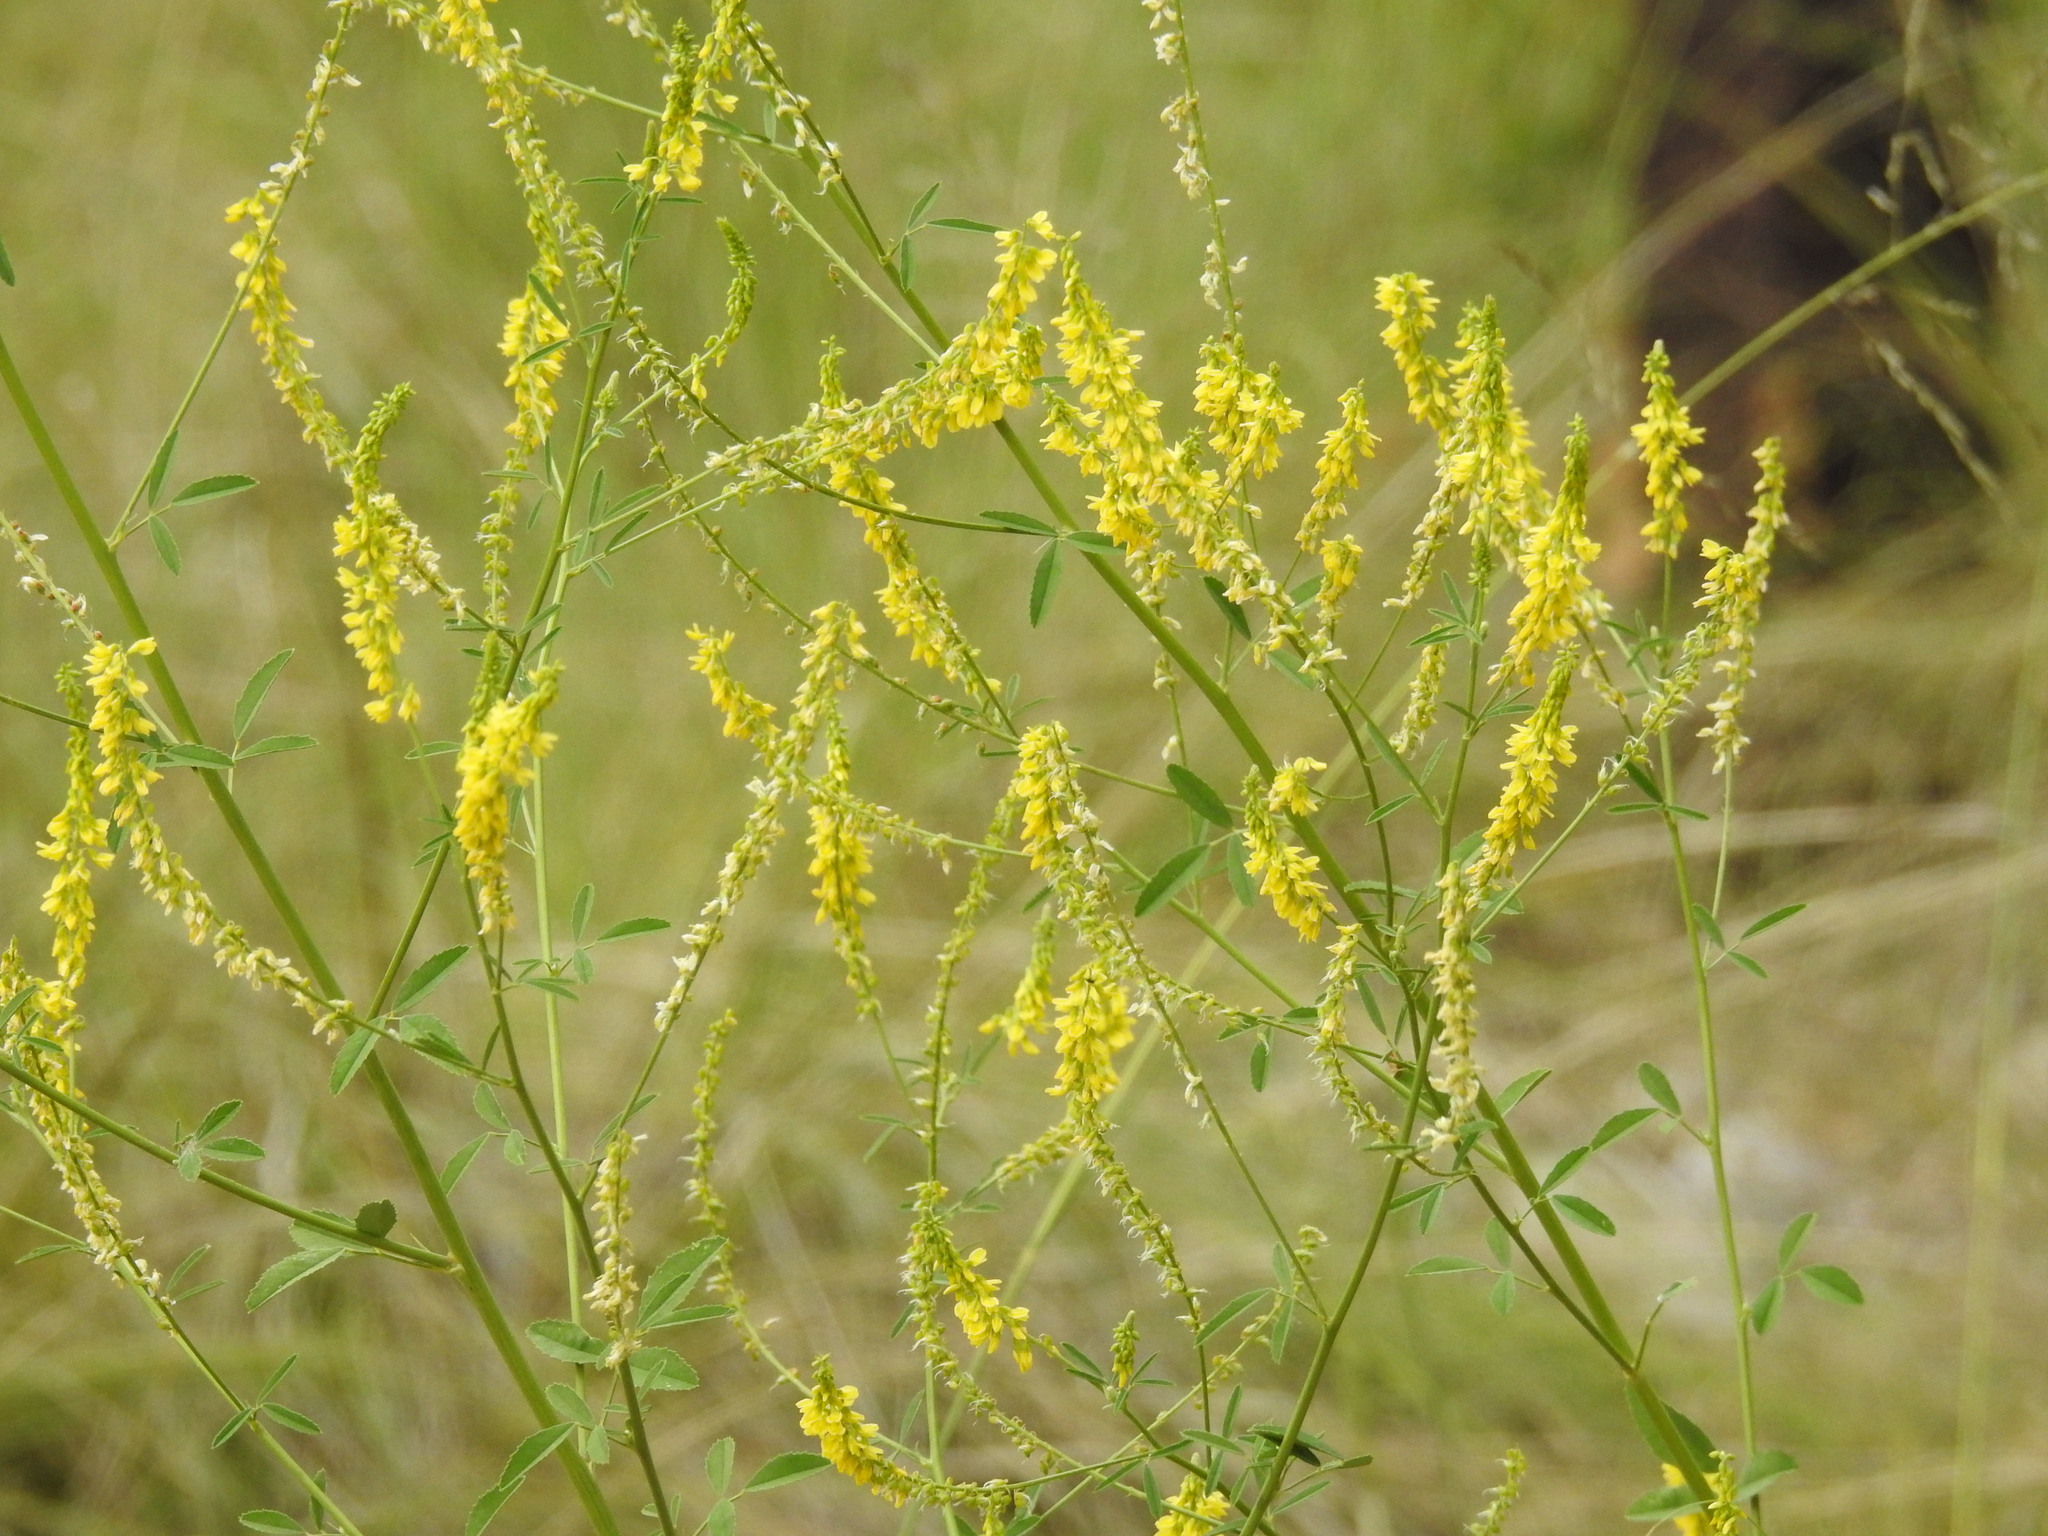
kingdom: Plantae
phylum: Tracheophyta
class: Magnoliopsida
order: Fabales
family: Fabaceae
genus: Melilotus
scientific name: Melilotus officinalis
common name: Sweetclover
